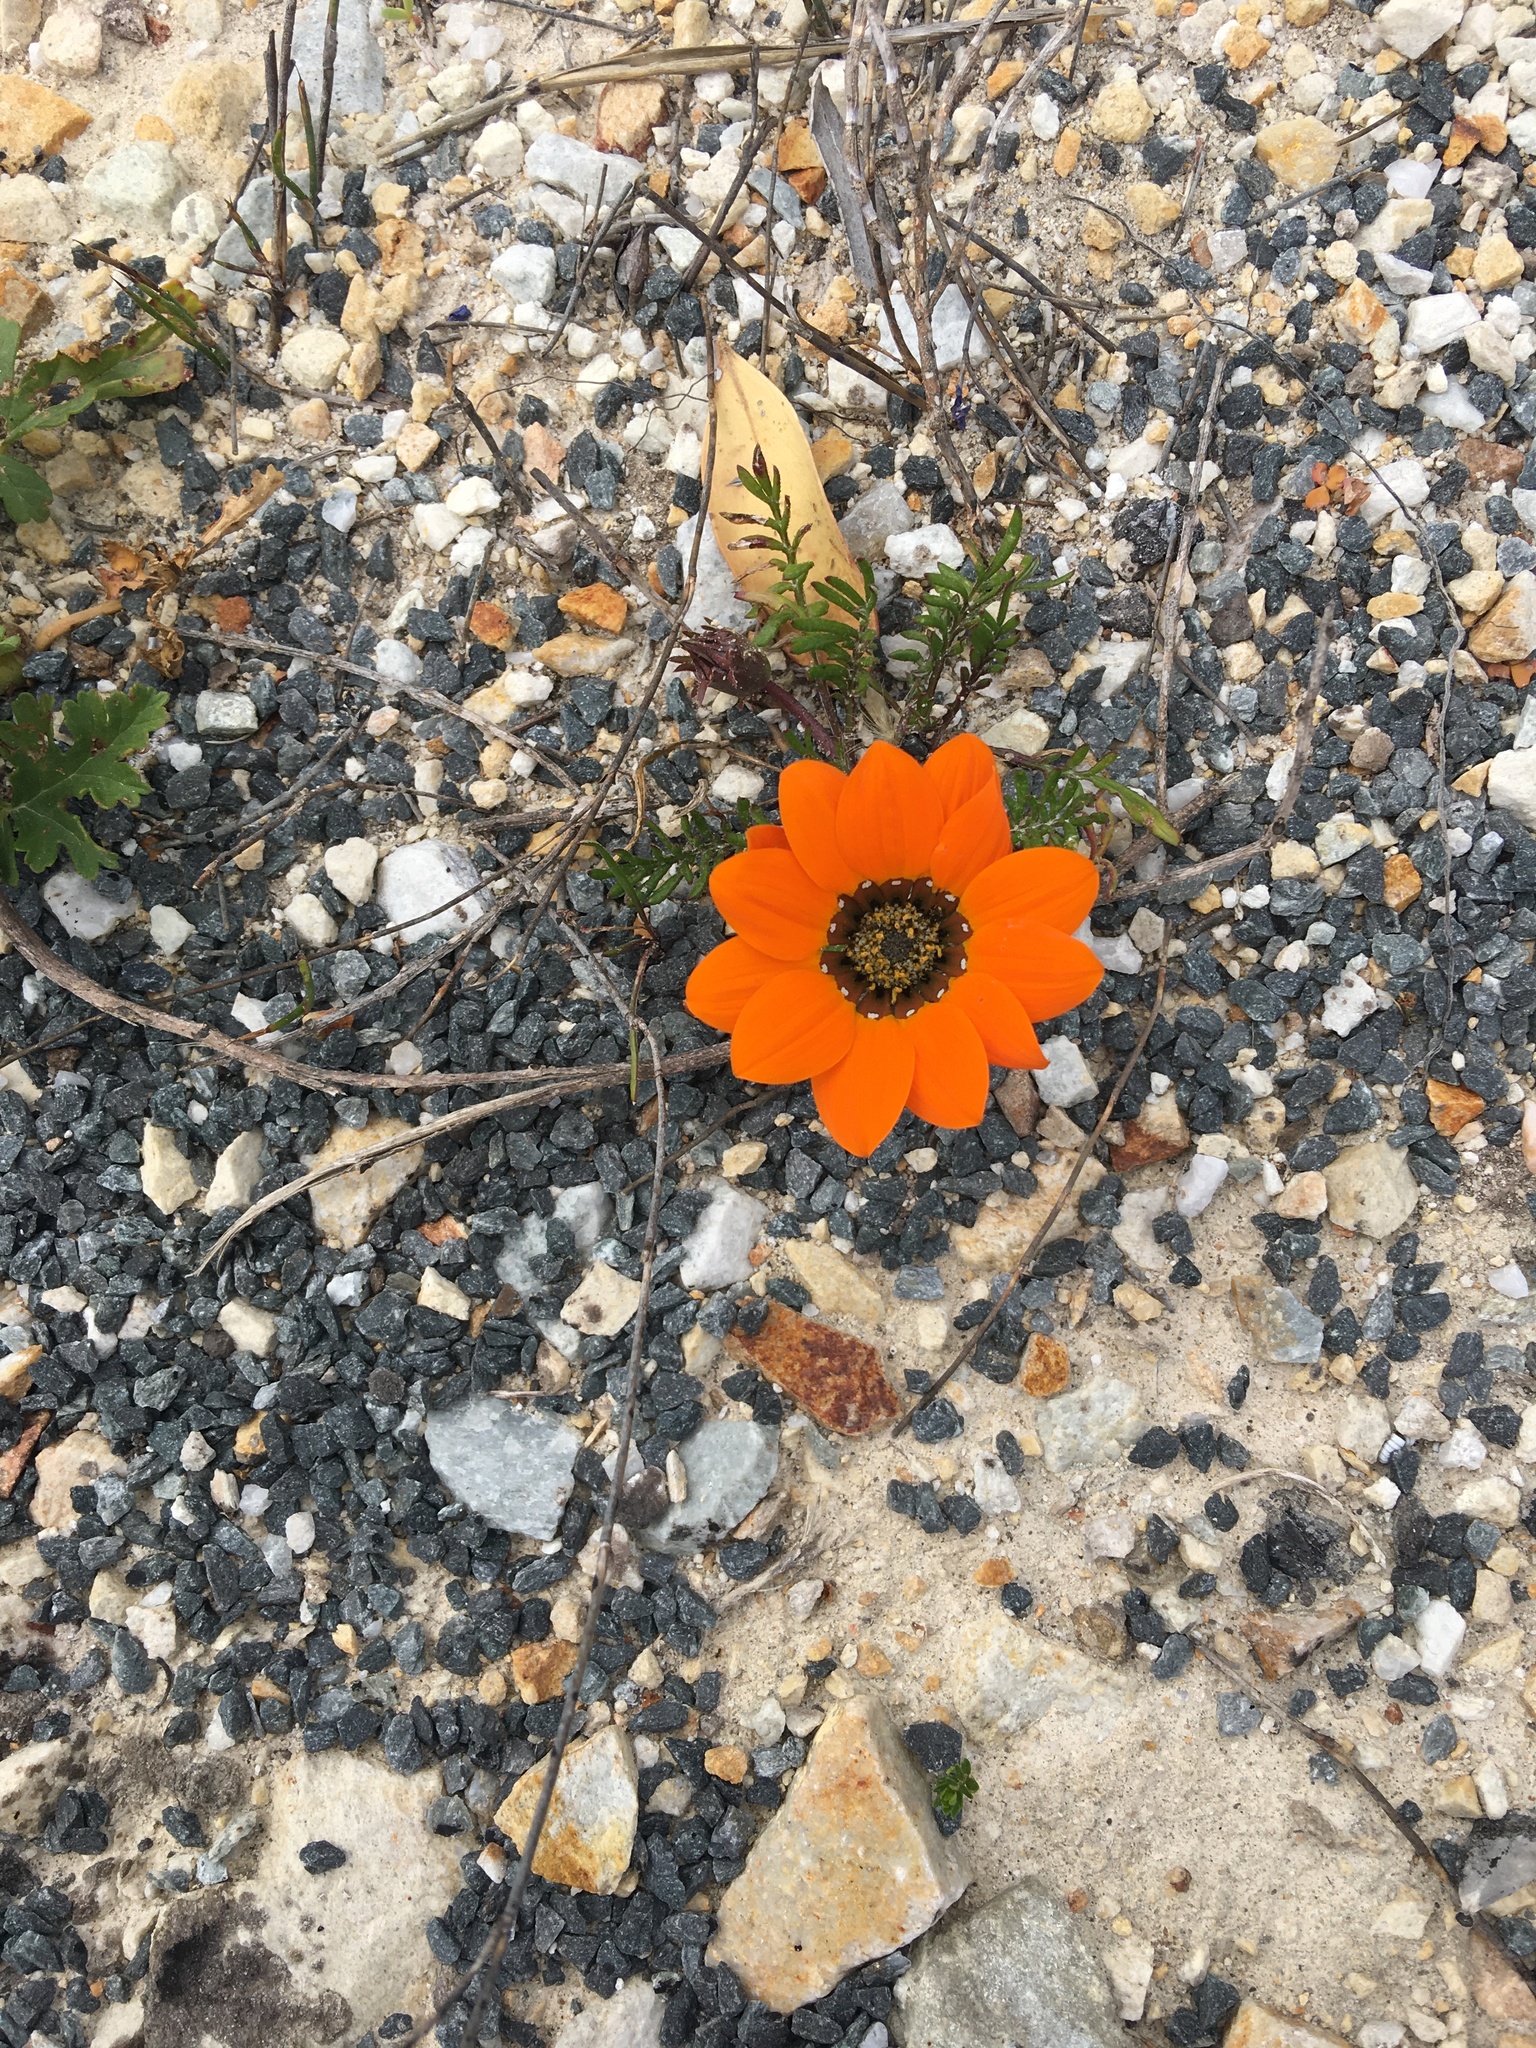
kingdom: Plantae
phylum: Tracheophyta
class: Magnoliopsida
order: Asterales
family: Asteraceae
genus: Gazania
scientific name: Gazania pectinata
